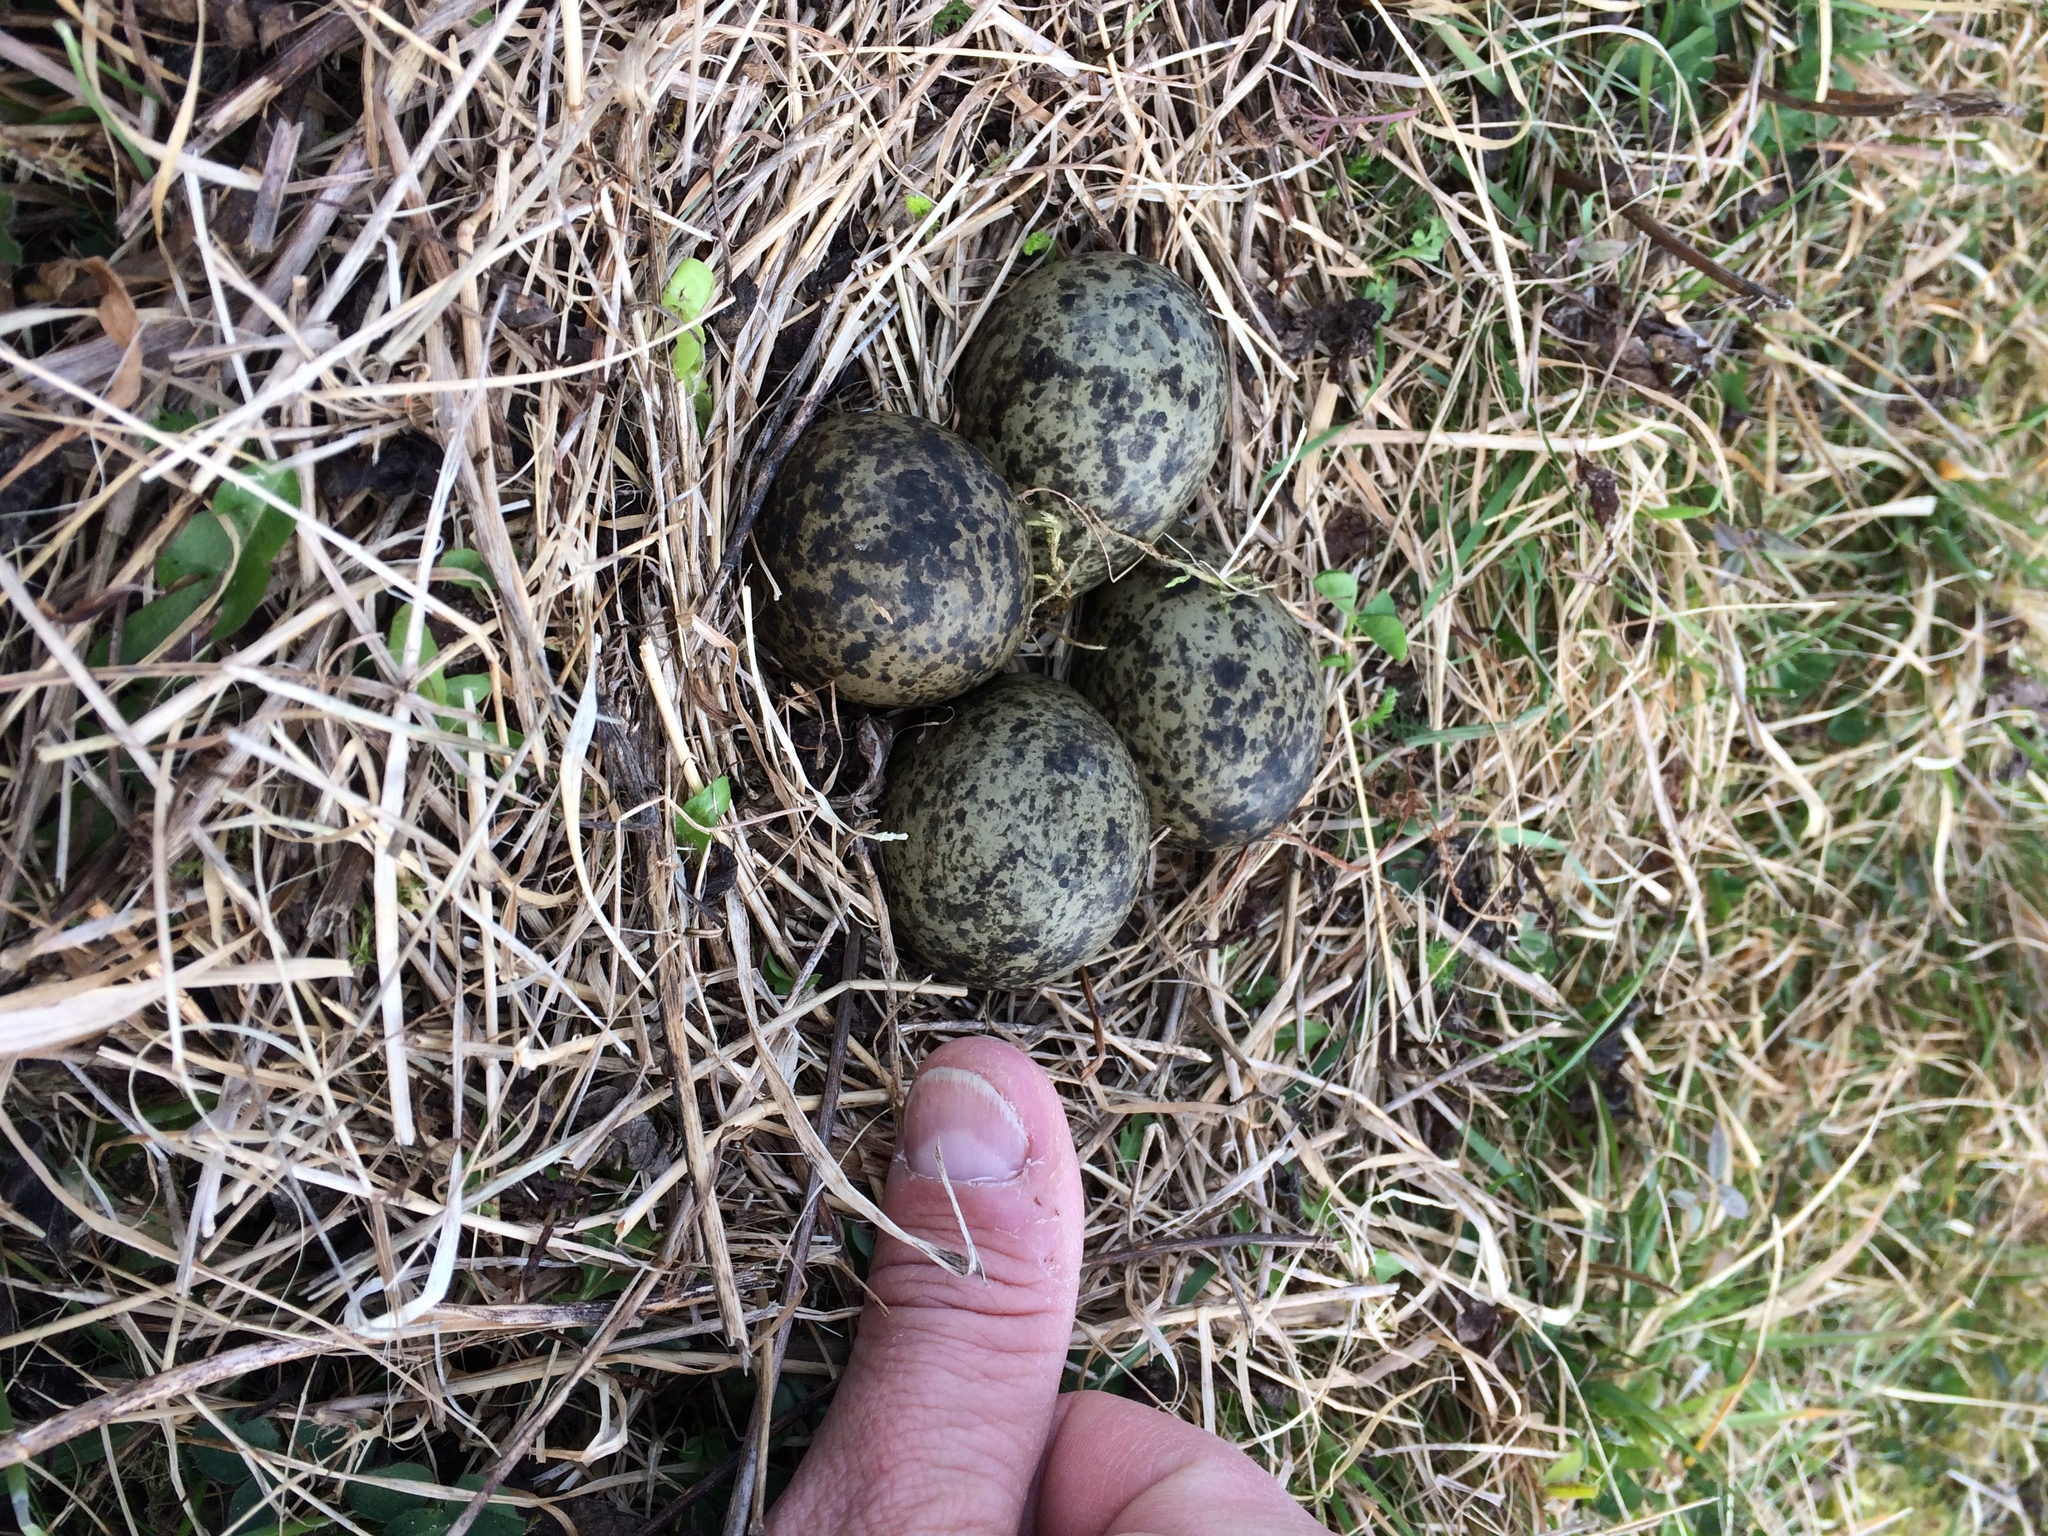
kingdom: Animalia
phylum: Chordata
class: Aves
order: Charadriiformes
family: Charadriidae
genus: Vanellus
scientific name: Vanellus miles
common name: Masked lapwing
